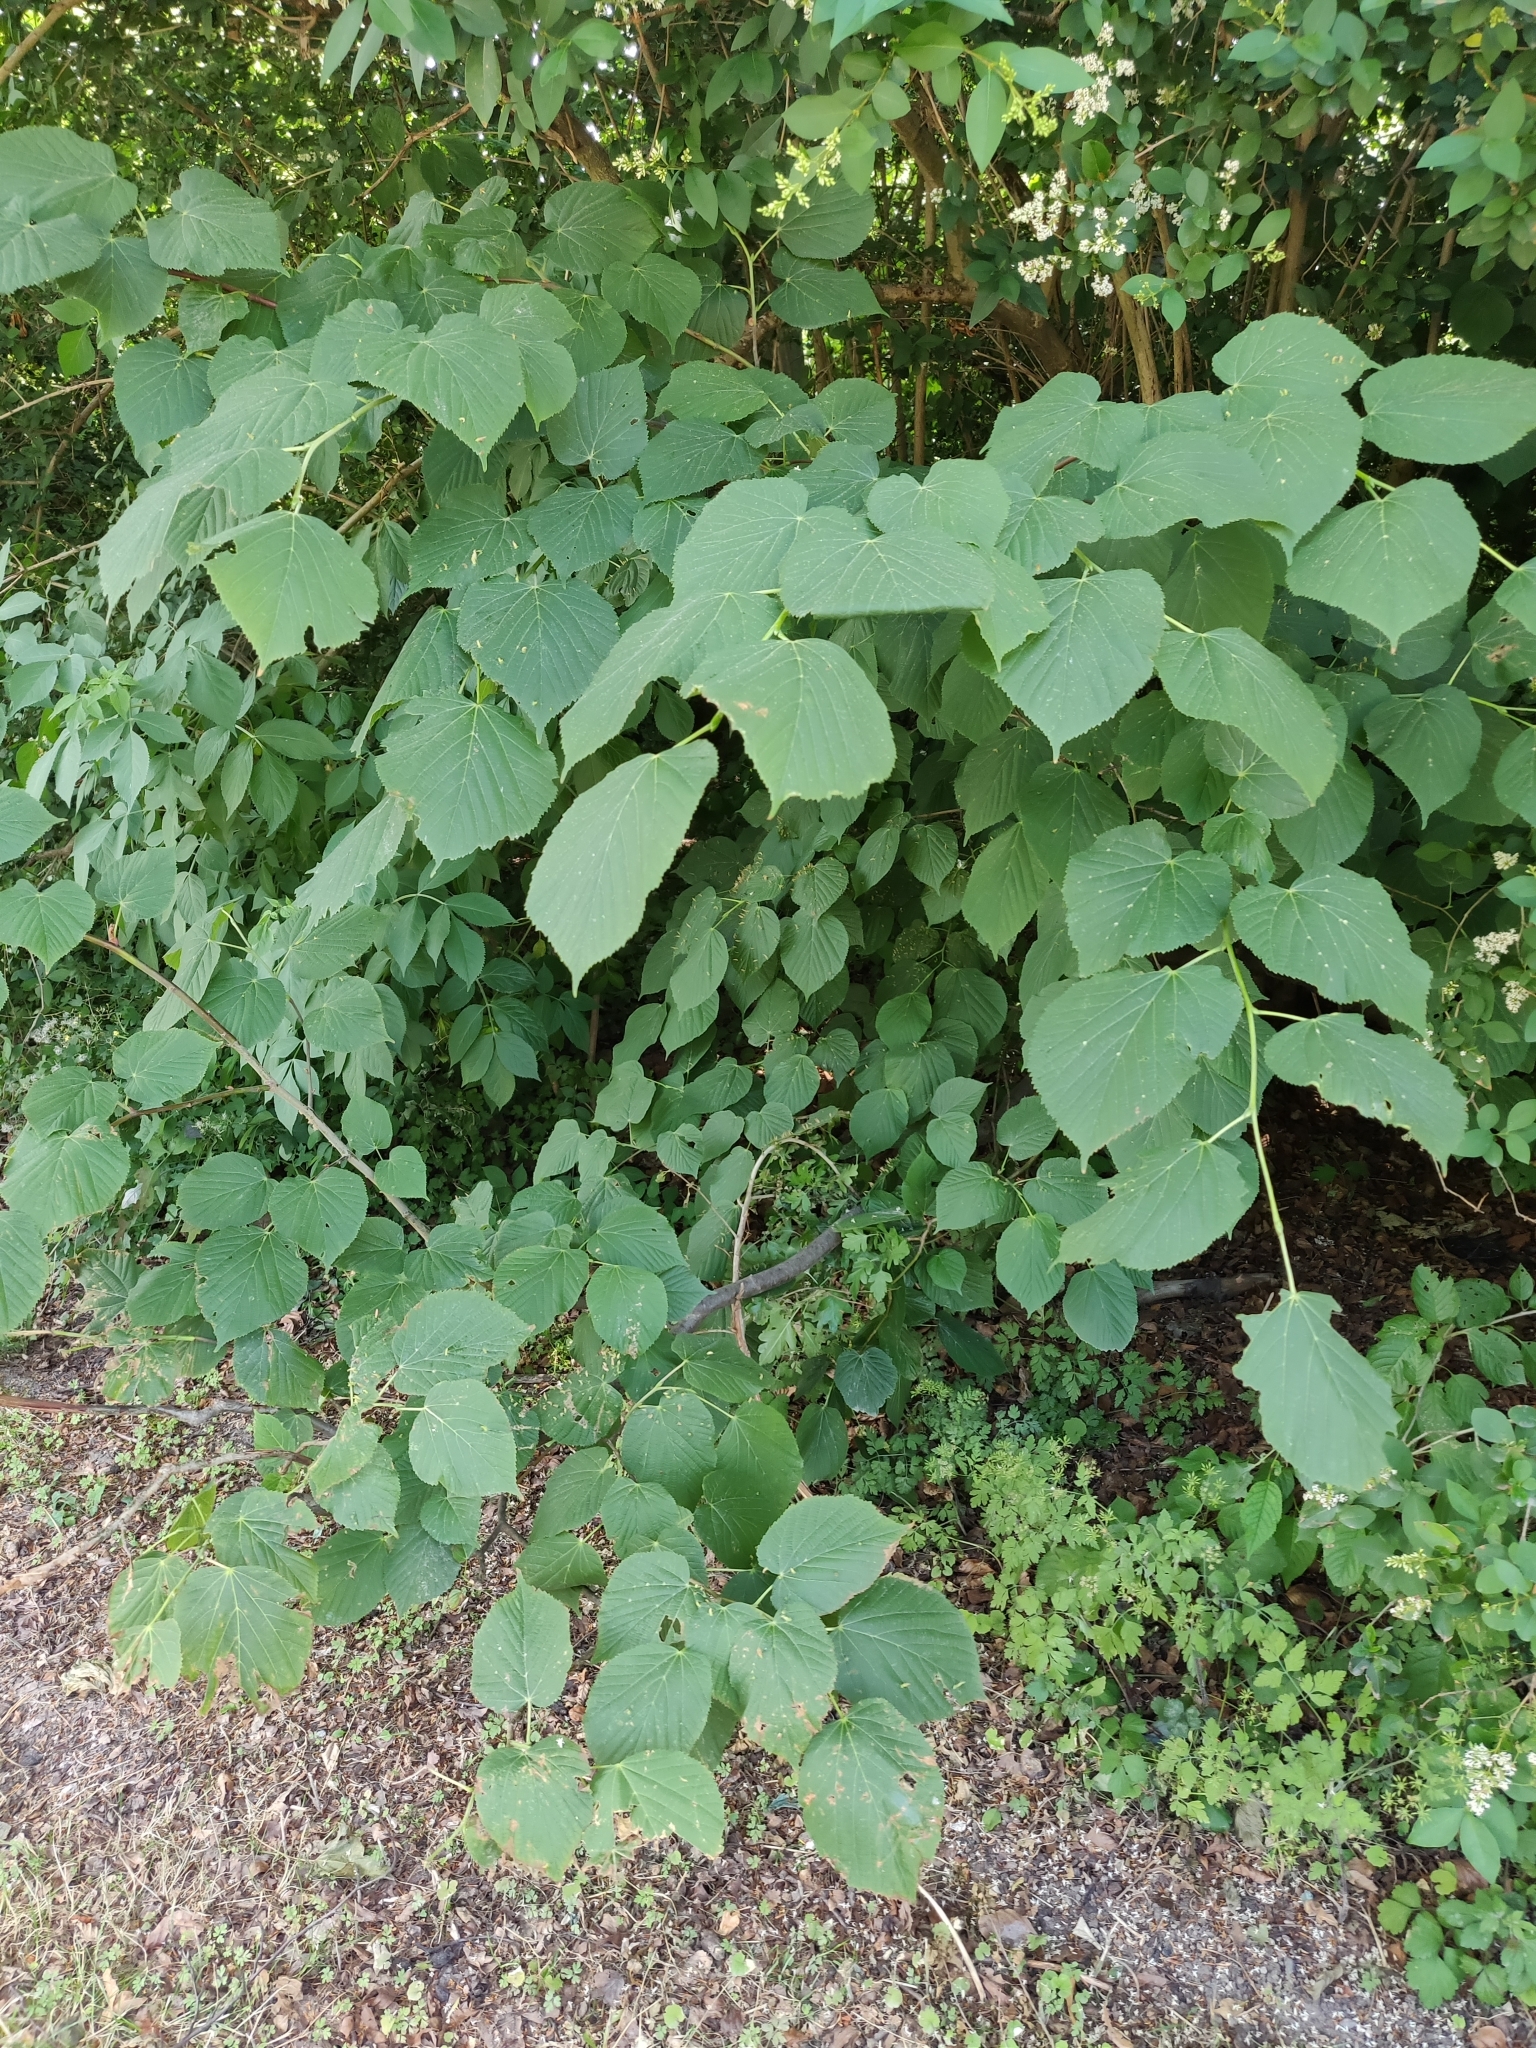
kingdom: Plantae
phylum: Tracheophyta
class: Magnoliopsida
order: Malvales
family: Malvaceae
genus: Tilia
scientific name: Tilia cordata
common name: Small-leaved lime
